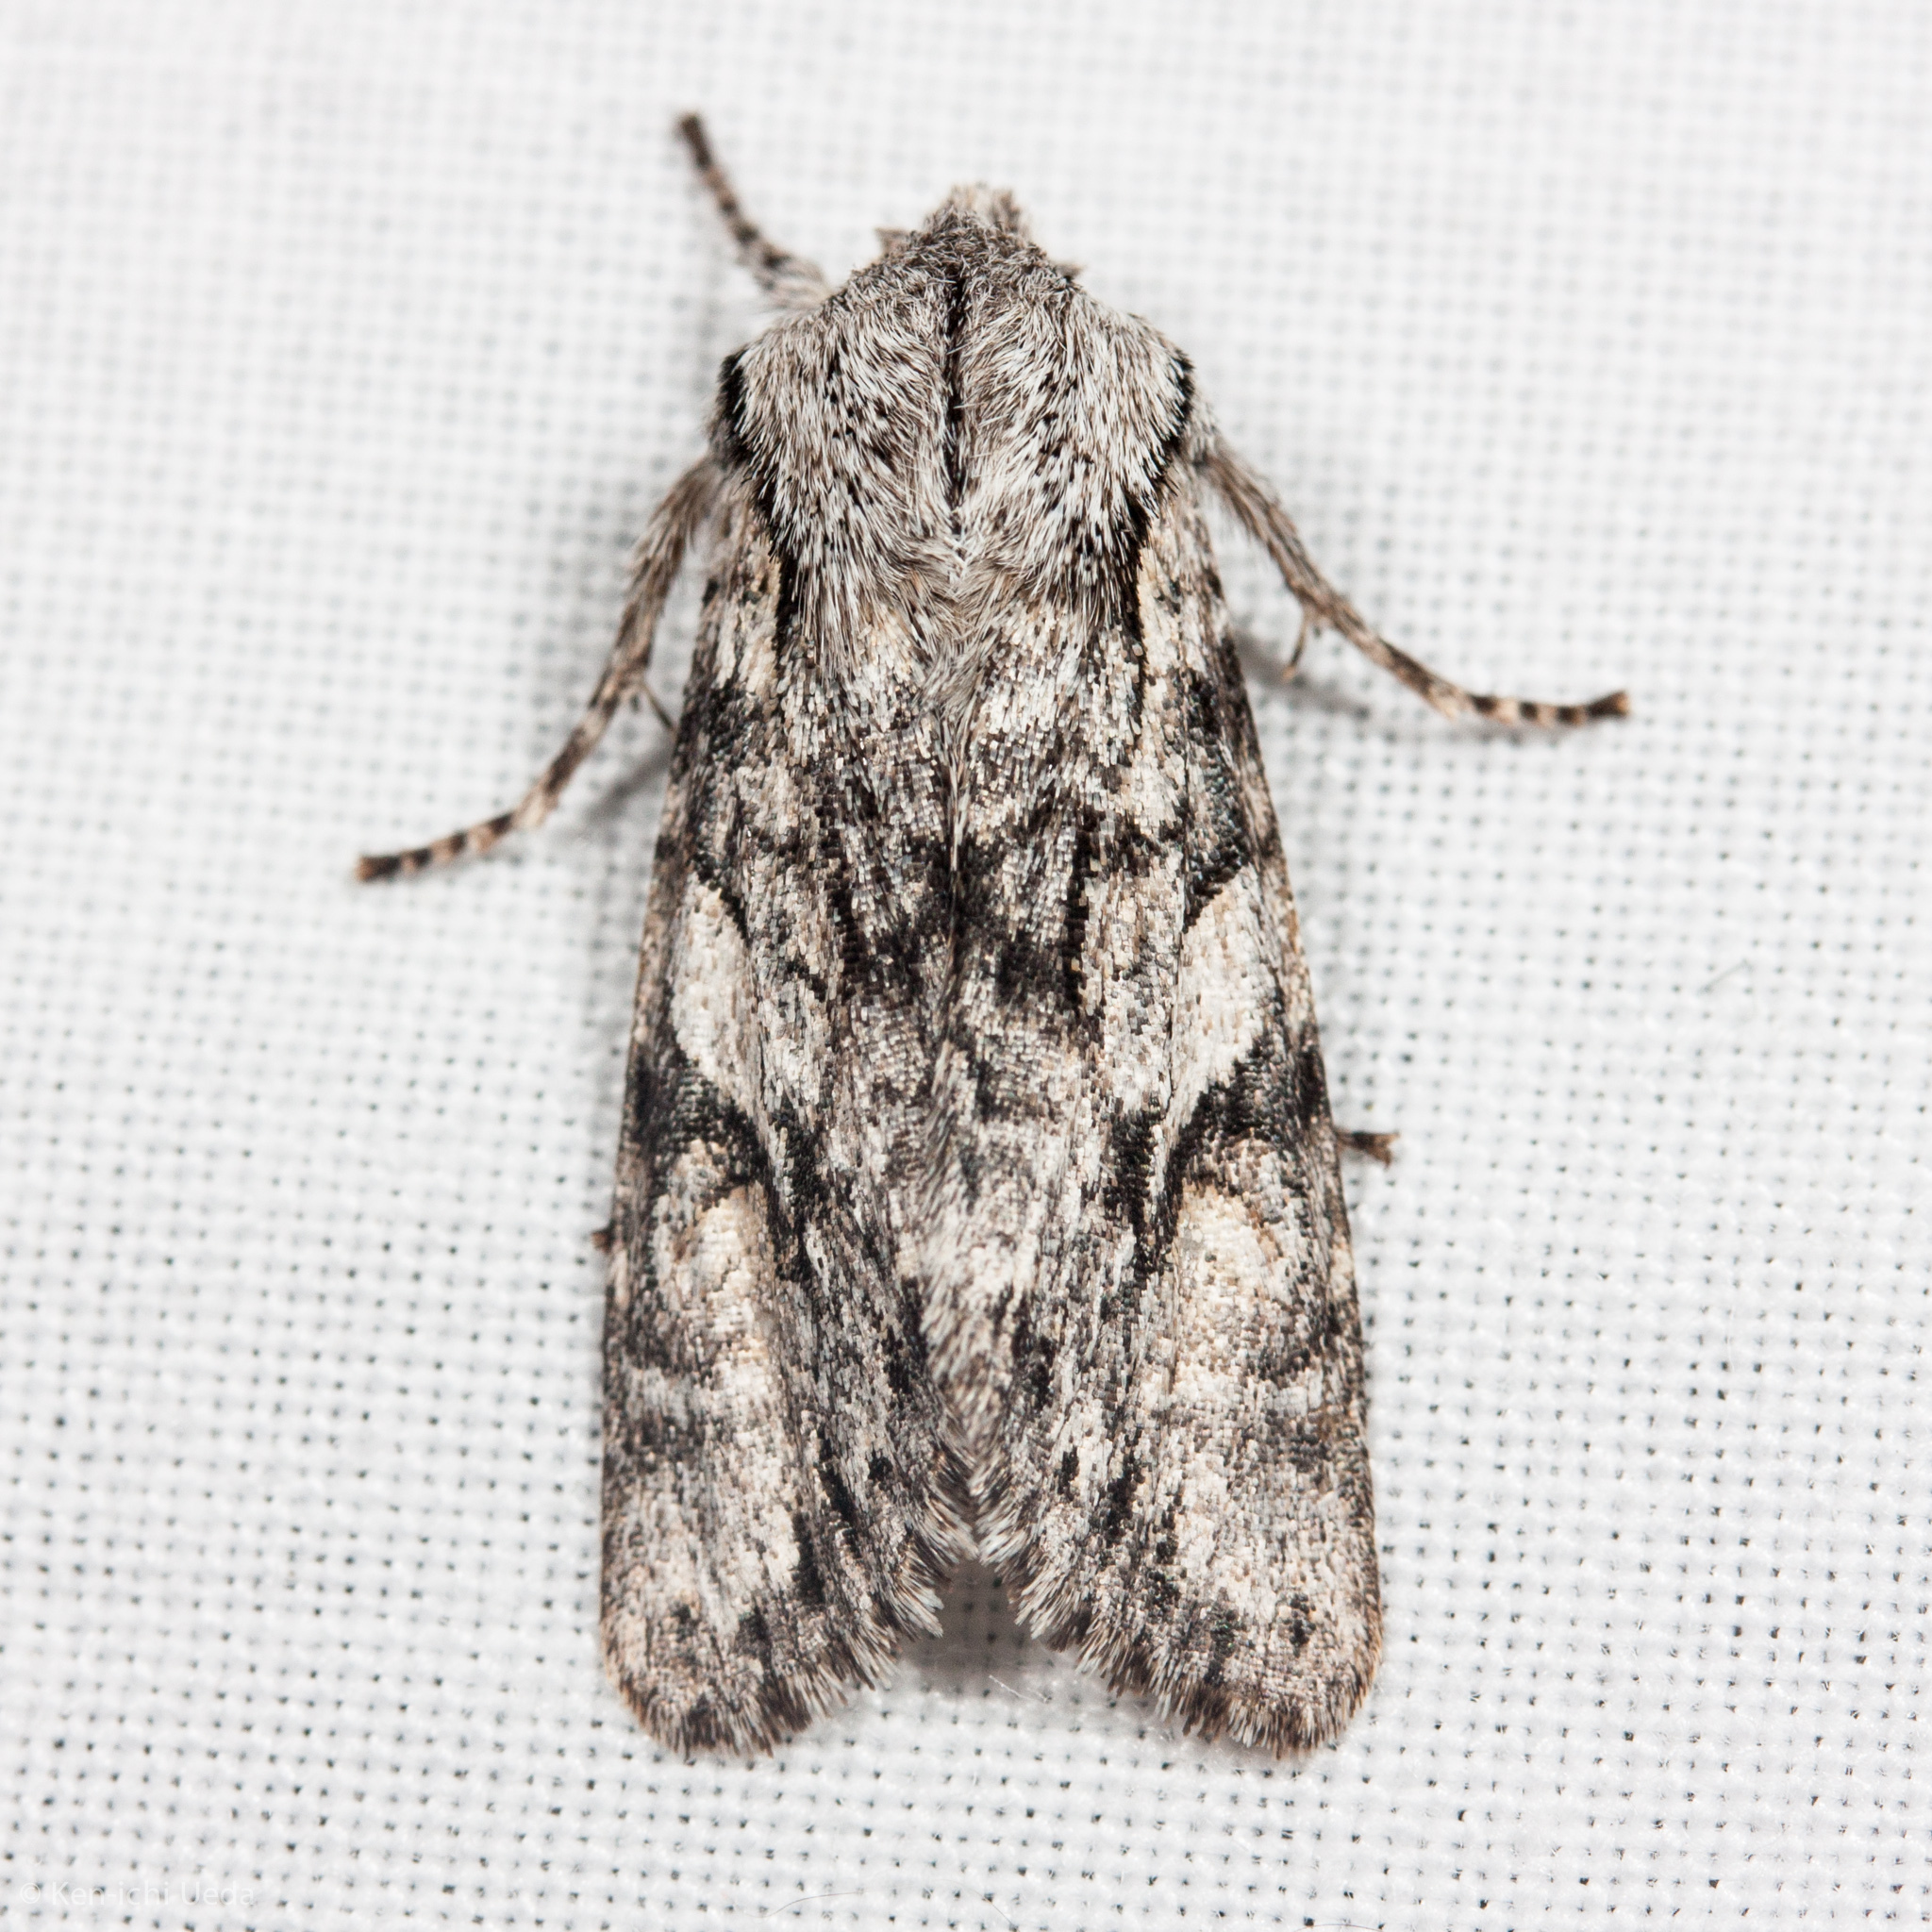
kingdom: Animalia
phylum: Arthropoda
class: Insecta
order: Lepidoptera
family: Noctuidae
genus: Egira
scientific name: Egira simplex
